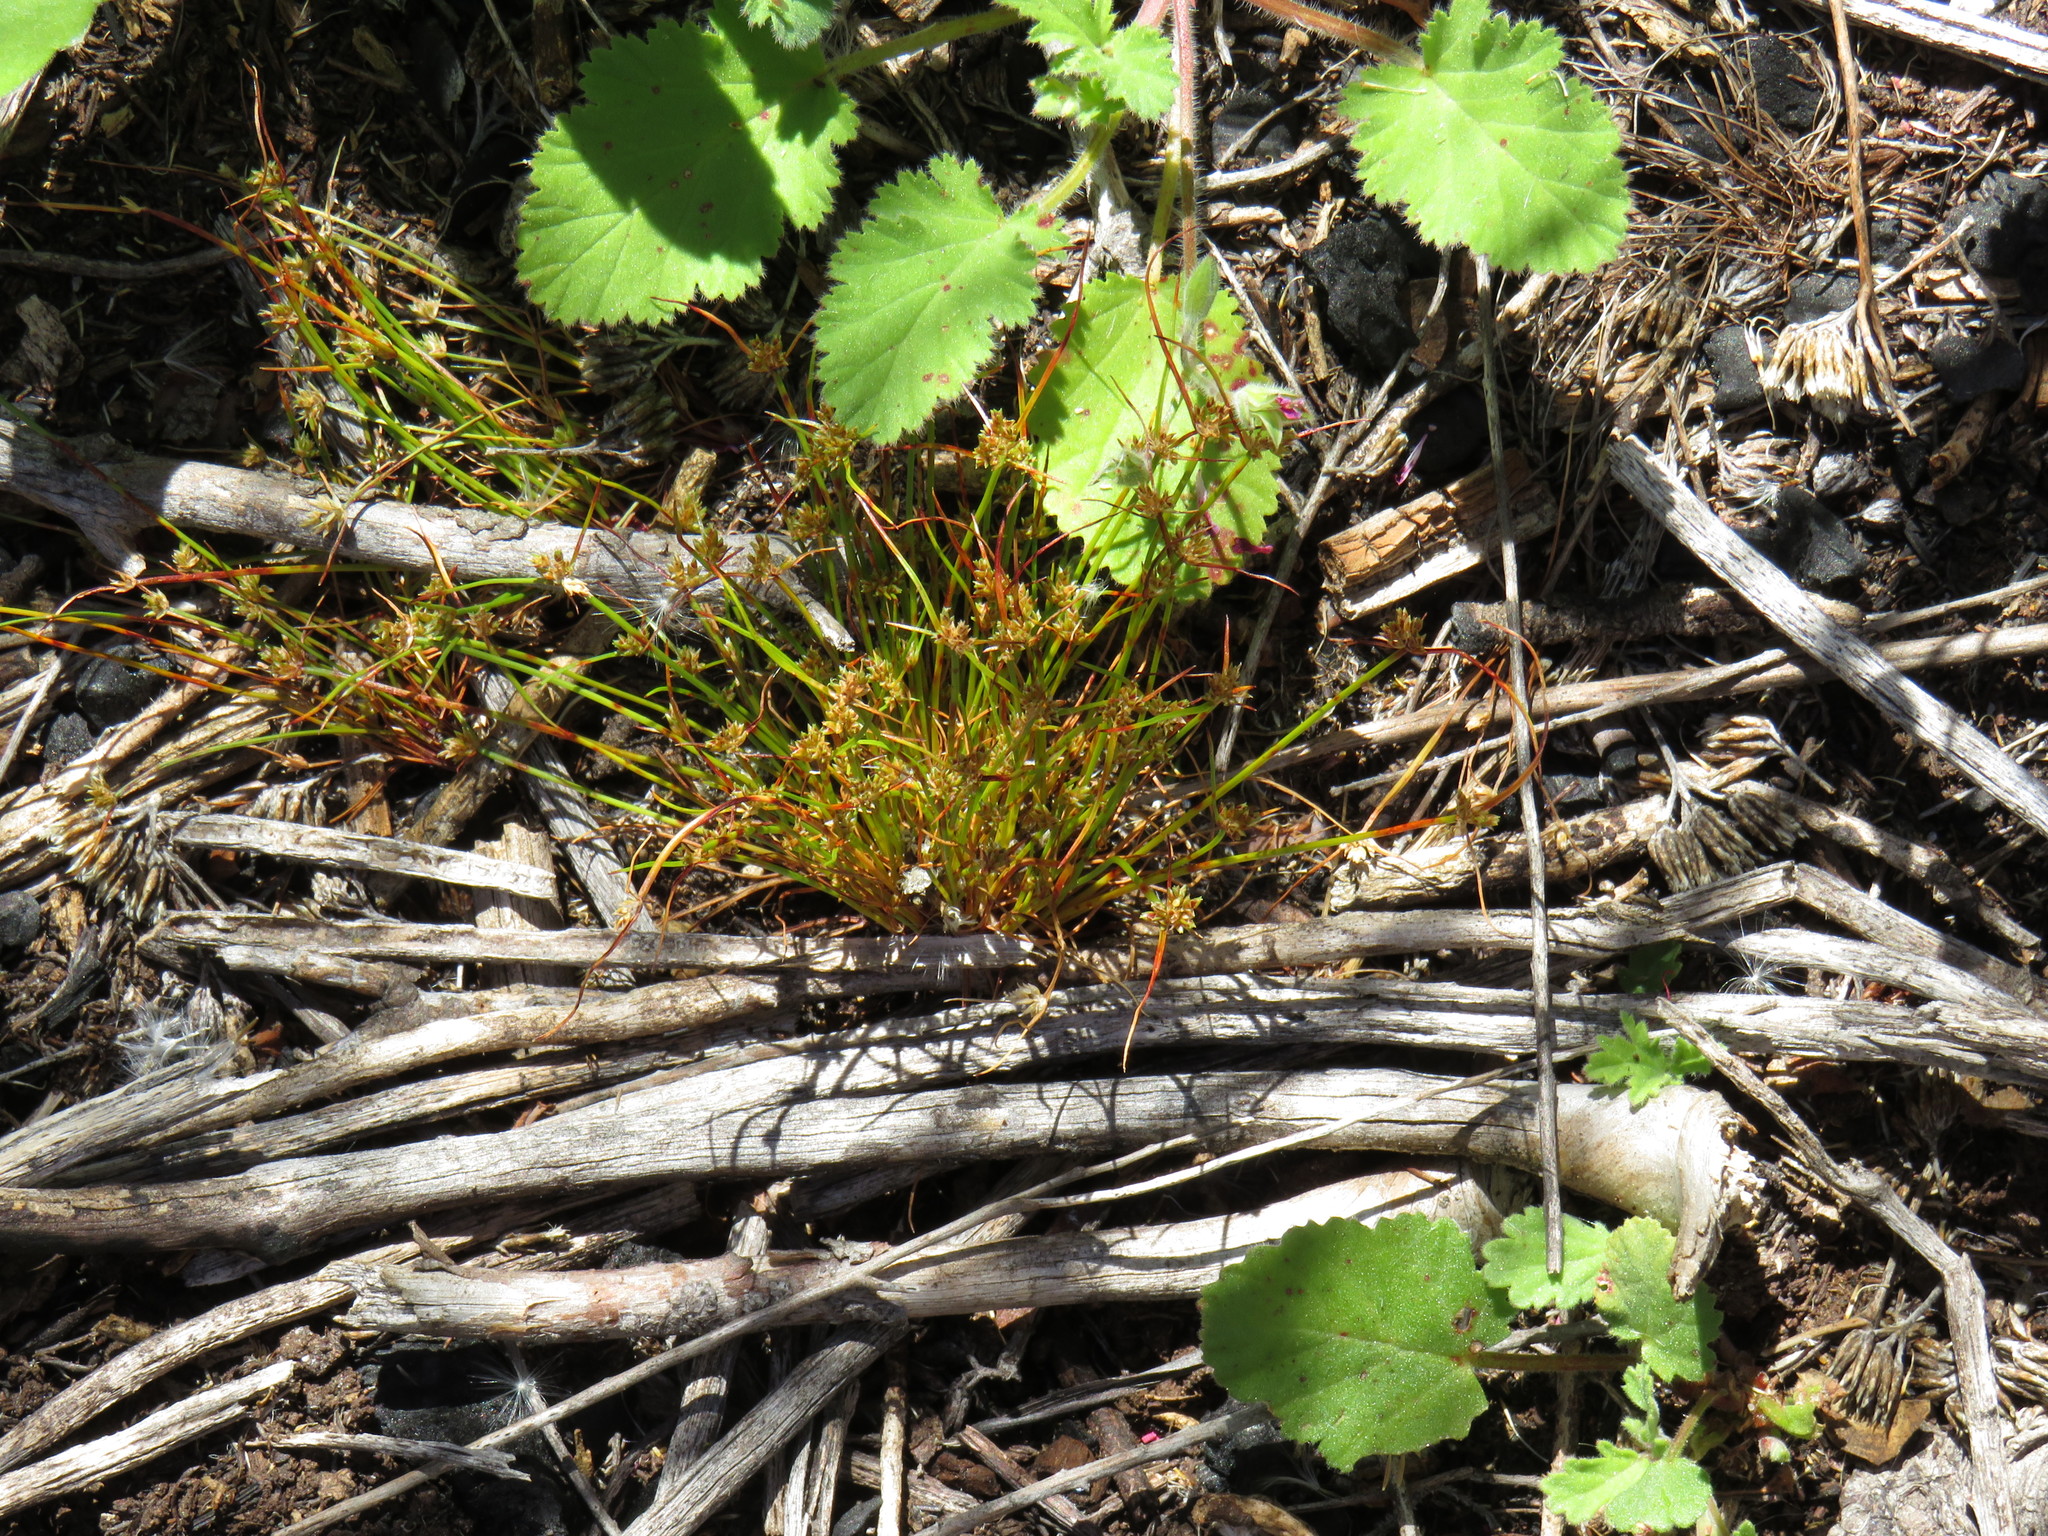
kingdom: Plantae
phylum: Tracheophyta
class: Magnoliopsida
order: Geraniales
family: Geraniaceae
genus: Pelargonium
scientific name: Pelargonium althaeoides
